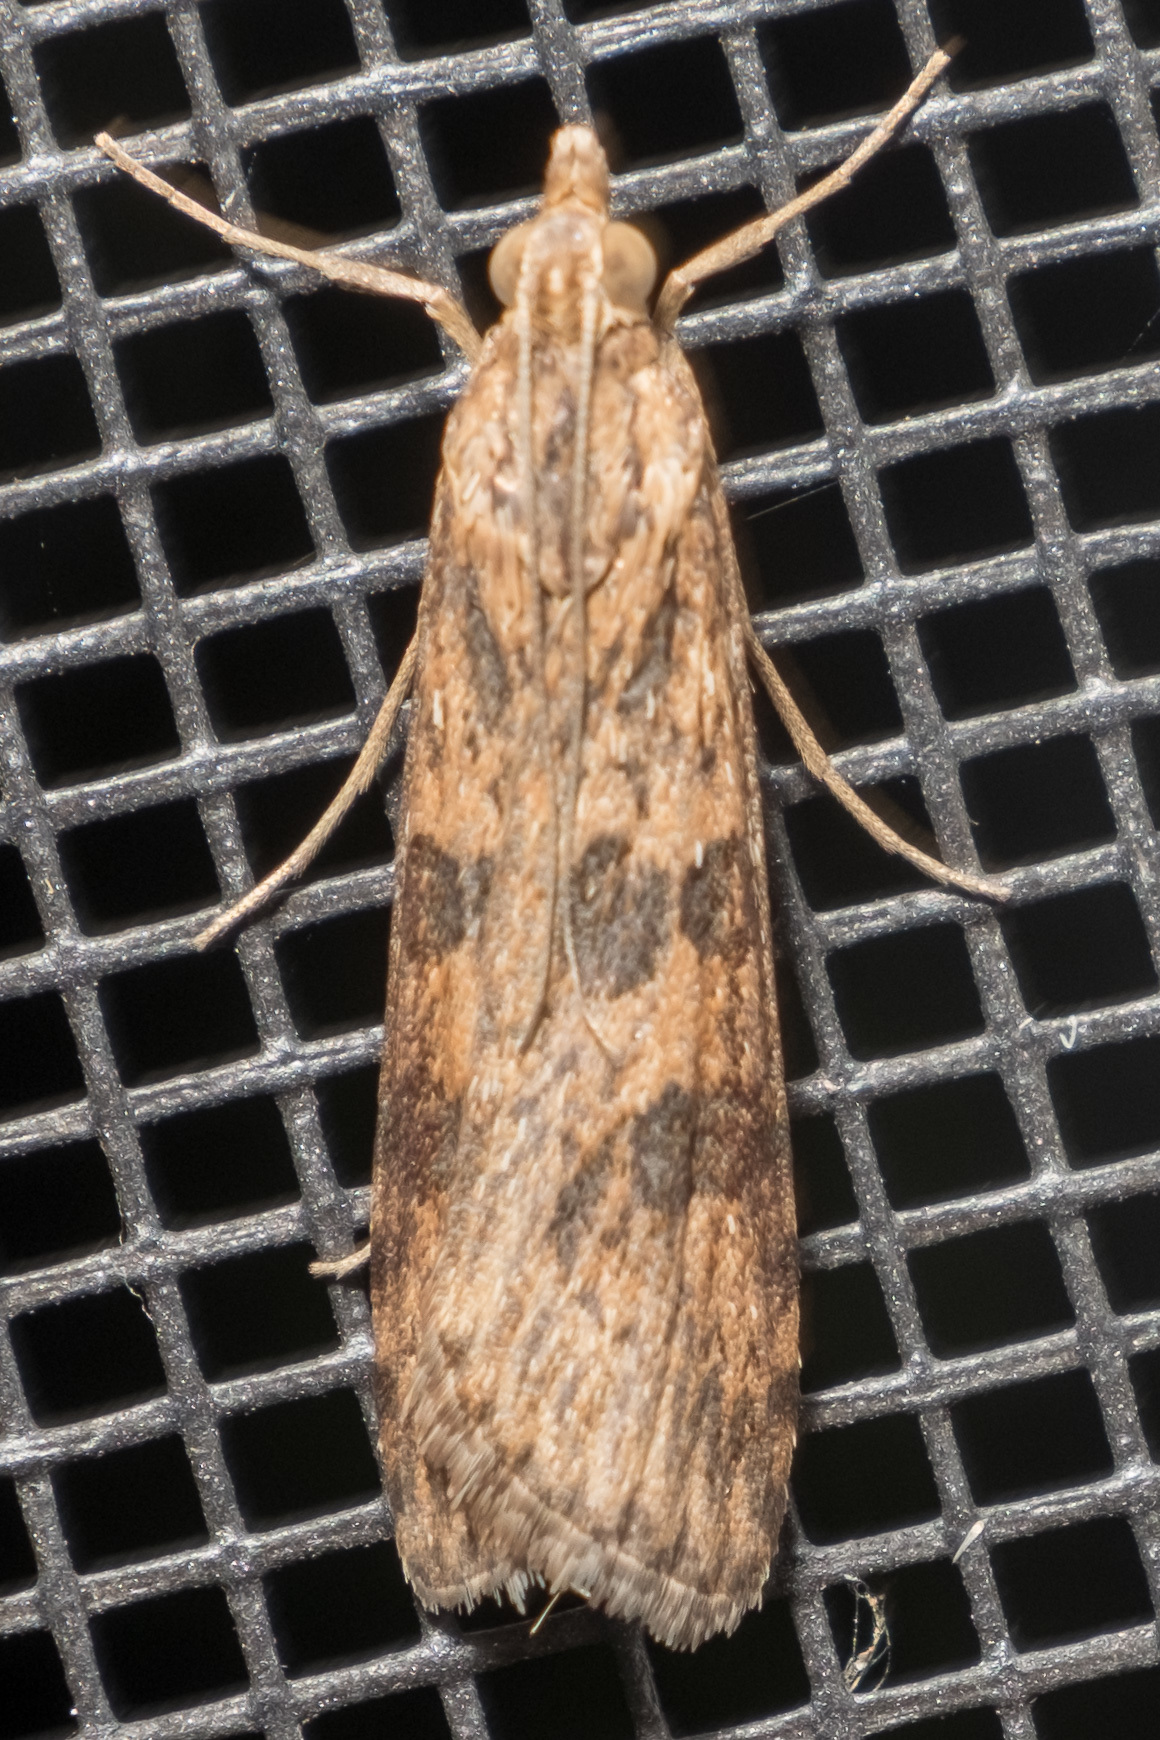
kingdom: Animalia
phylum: Arthropoda
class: Insecta
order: Lepidoptera
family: Crambidae
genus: Nomophila
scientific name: Nomophila nearctica
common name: American rush veneer
